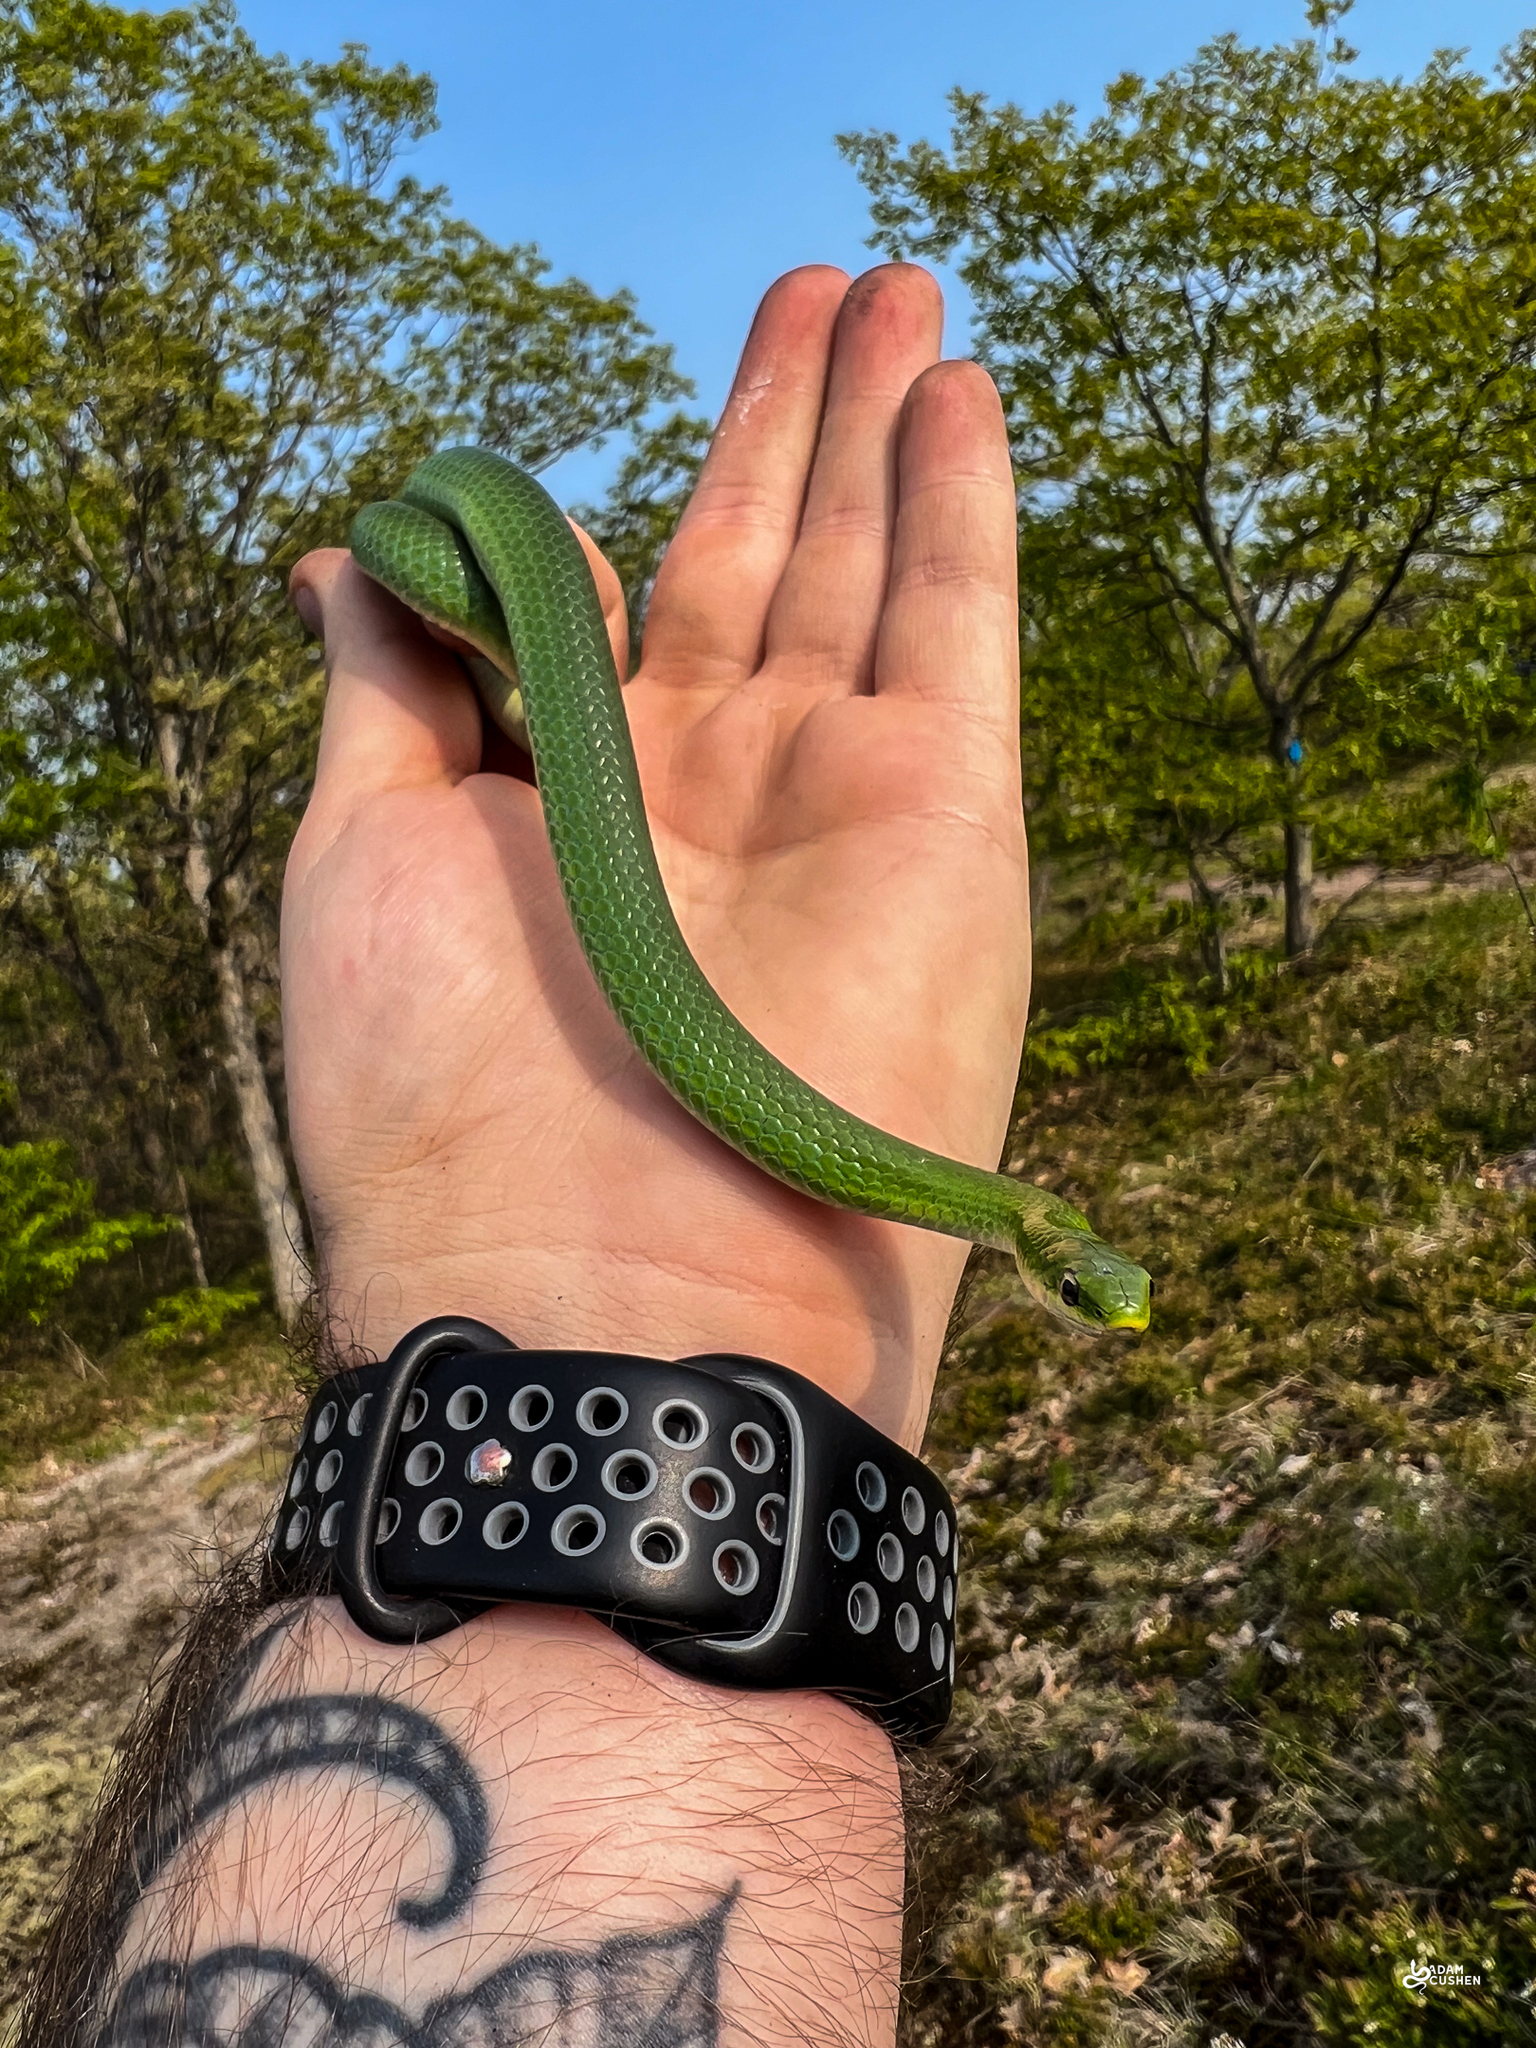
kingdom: Animalia
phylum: Chordata
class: Squamata
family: Colubridae
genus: Opheodrys
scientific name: Opheodrys vernalis
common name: Smooth green snake
